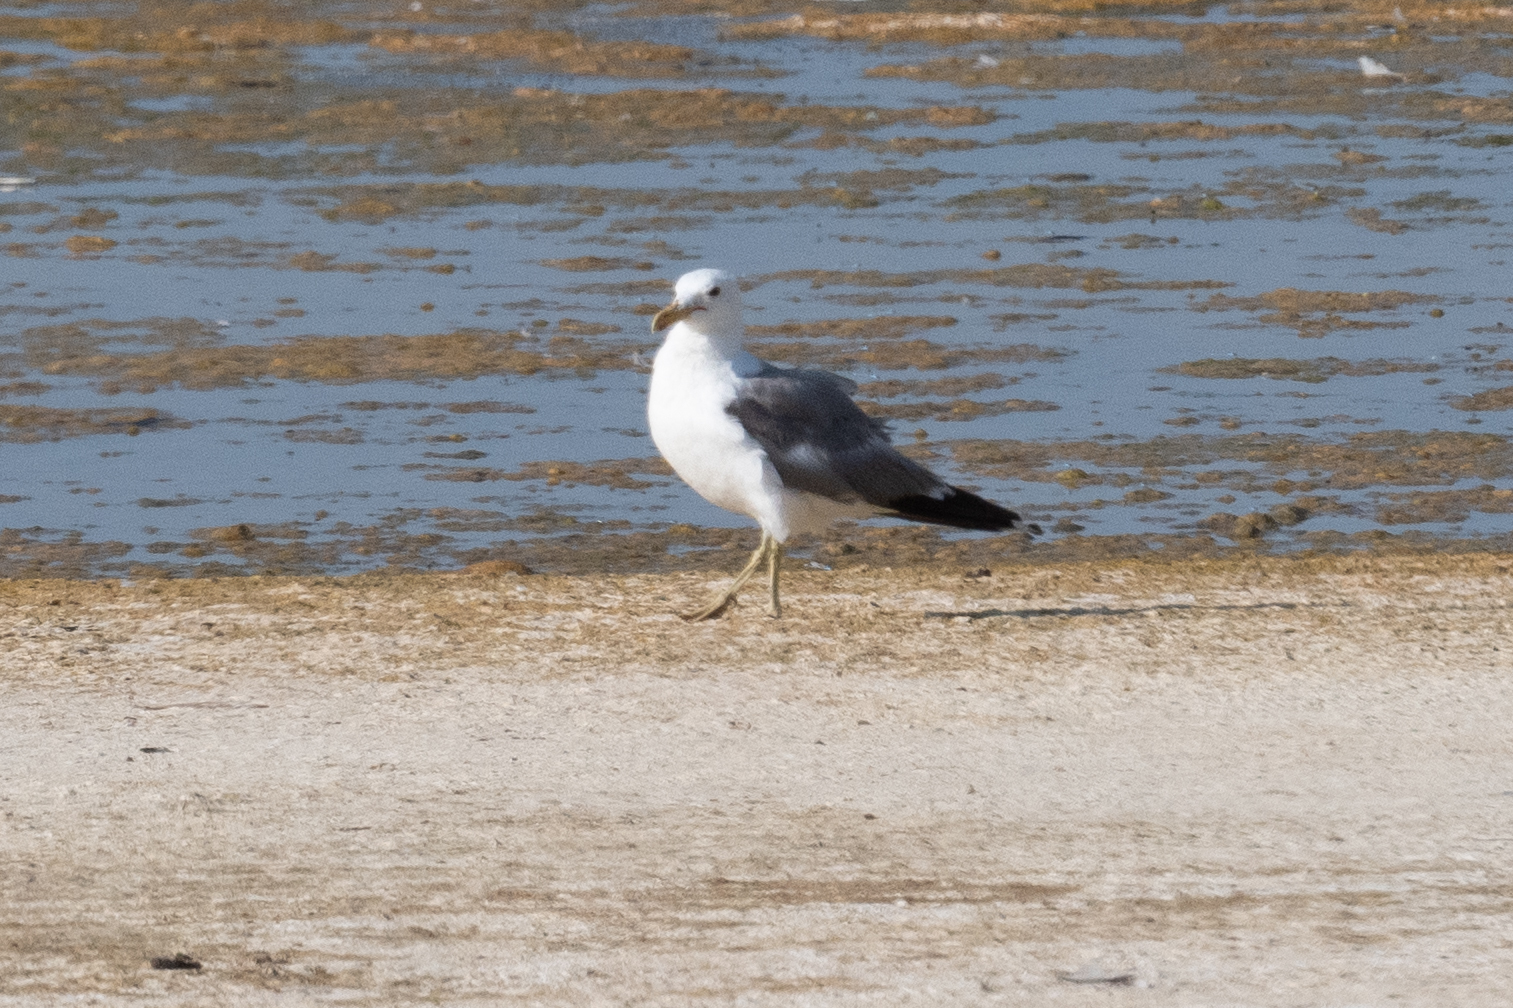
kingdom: Animalia
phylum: Chordata
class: Aves
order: Charadriiformes
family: Laridae
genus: Larus
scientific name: Larus californicus
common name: California gull
